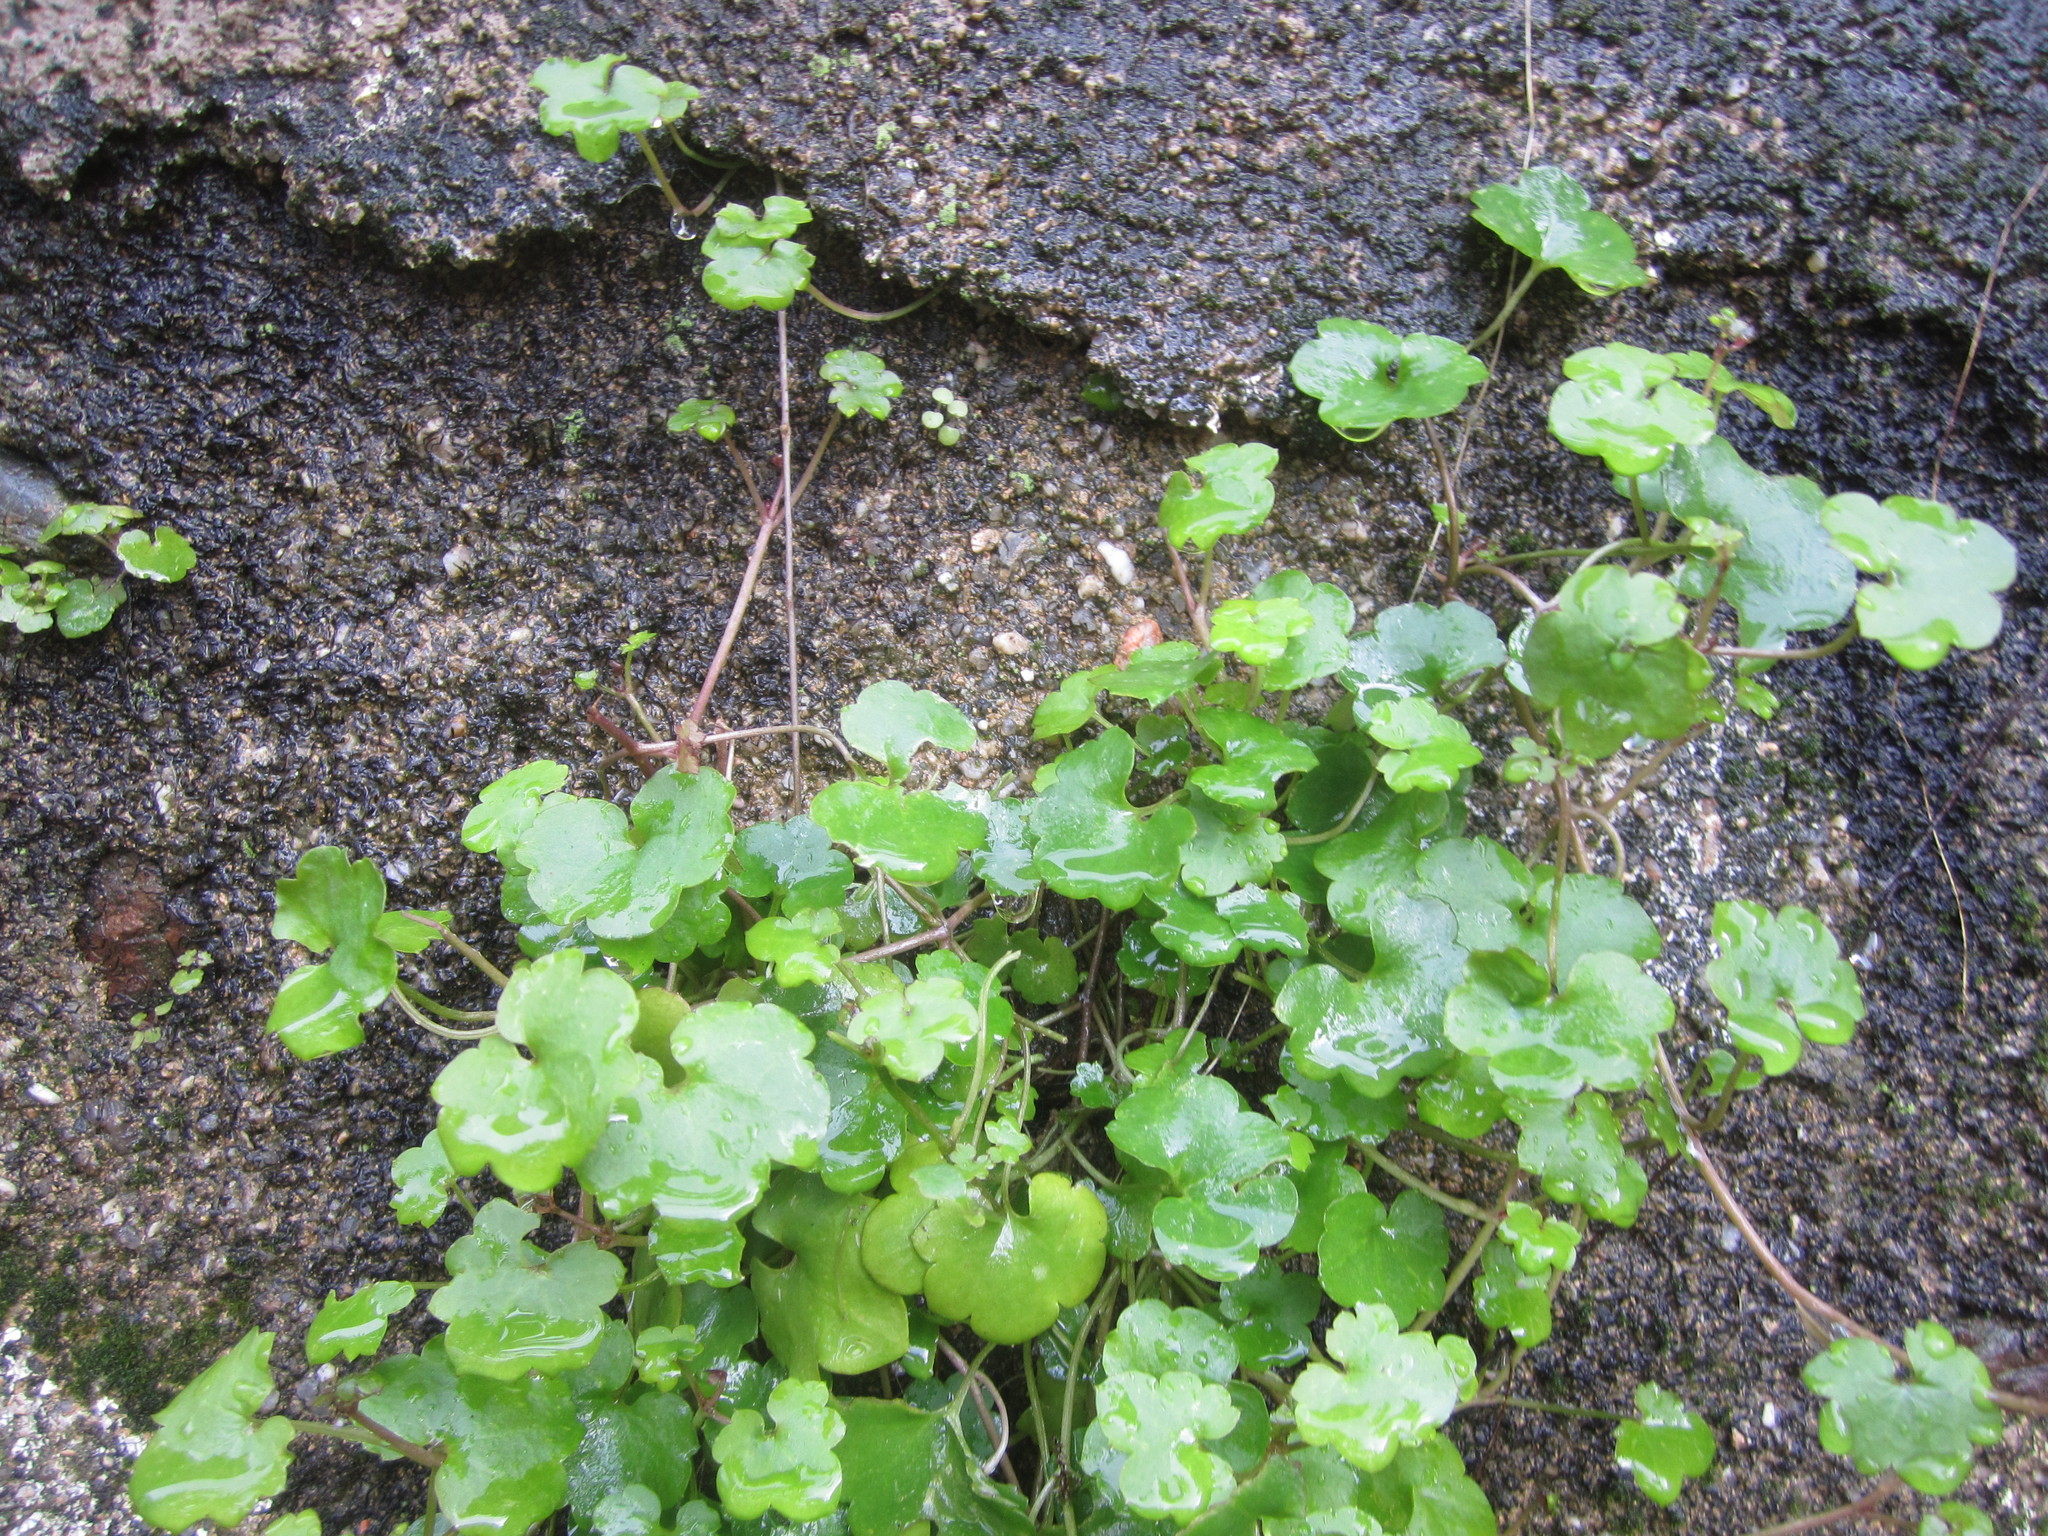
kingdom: Plantae
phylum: Tracheophyta
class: Magnoliopsida
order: Lamiales
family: Plantaginaceae
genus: Cymbalaria
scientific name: Cymbalaria muralis
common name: Ivy-leaved toadflax
